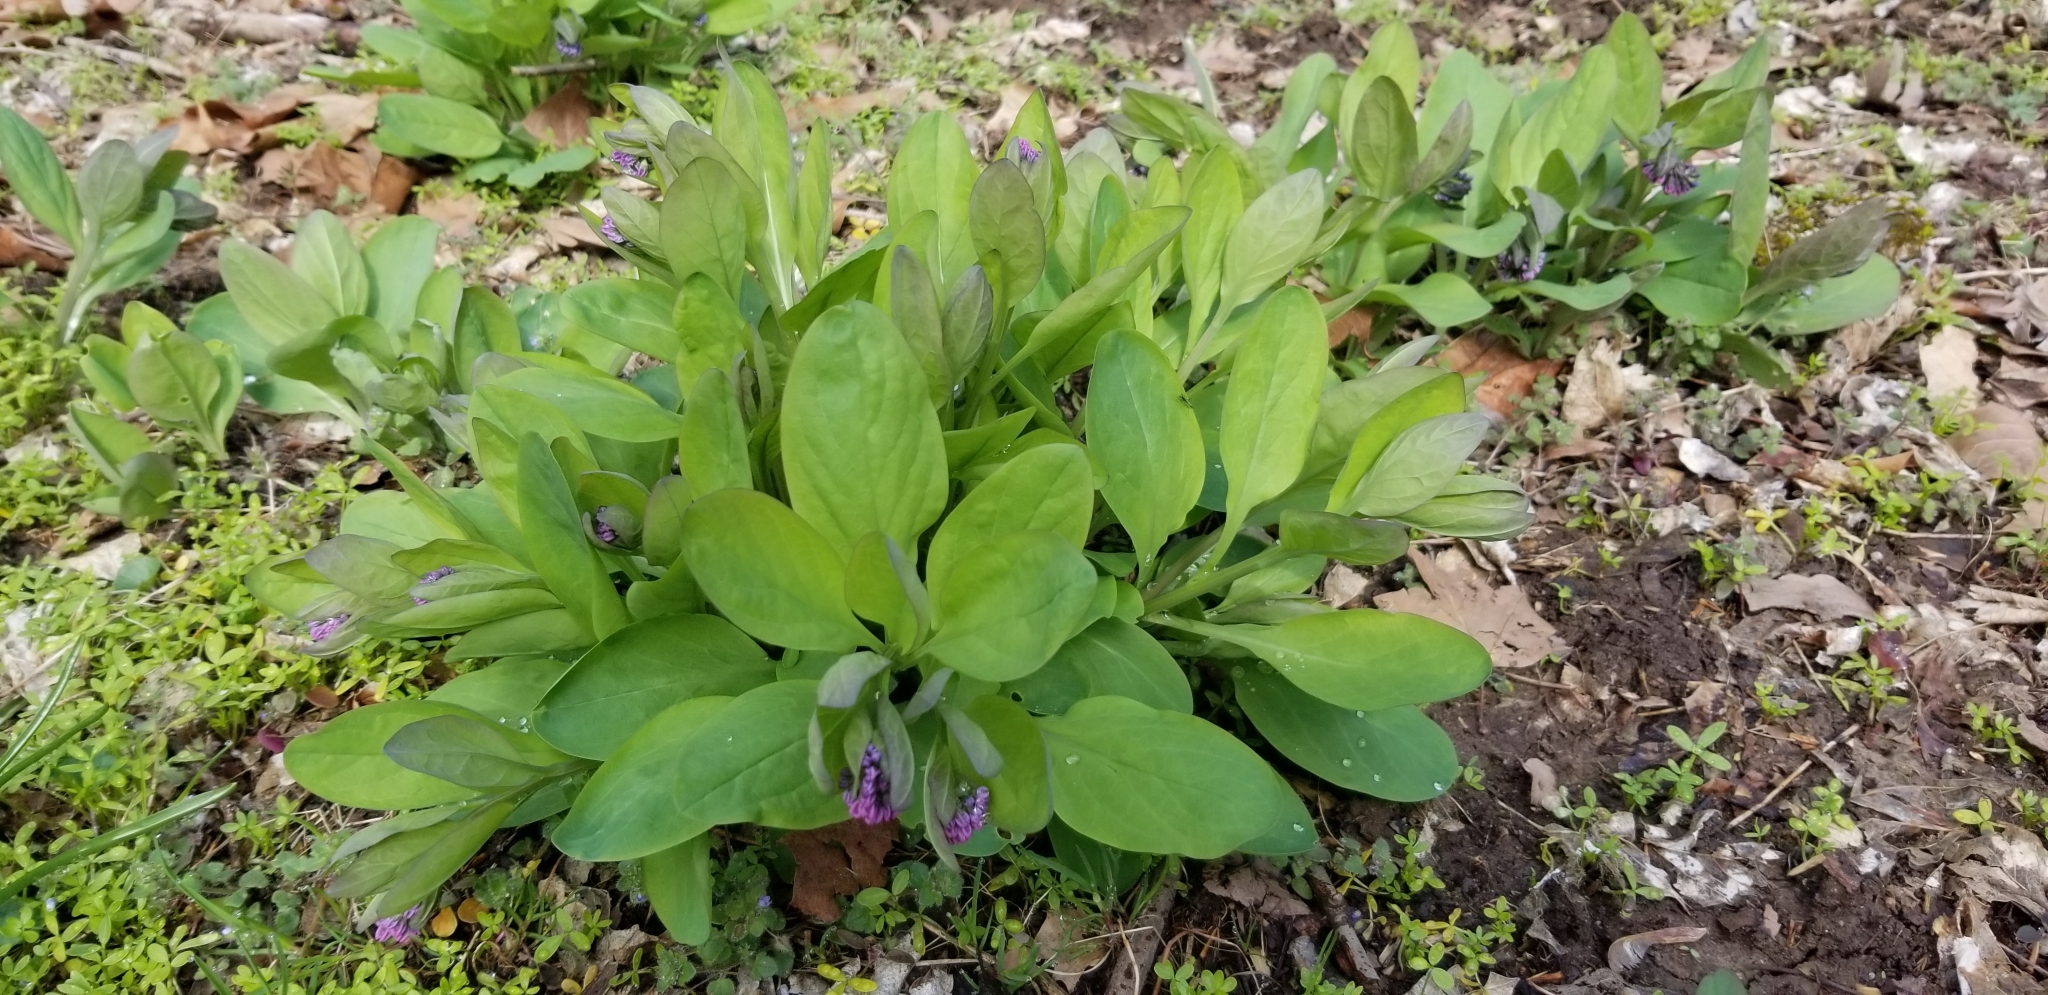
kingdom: Plantae
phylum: Tracheophyta
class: Magnoliopsida
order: Boraginales
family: Boraginaceae
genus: Mertensia
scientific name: Mertensia virginica
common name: Virginia bluebells
